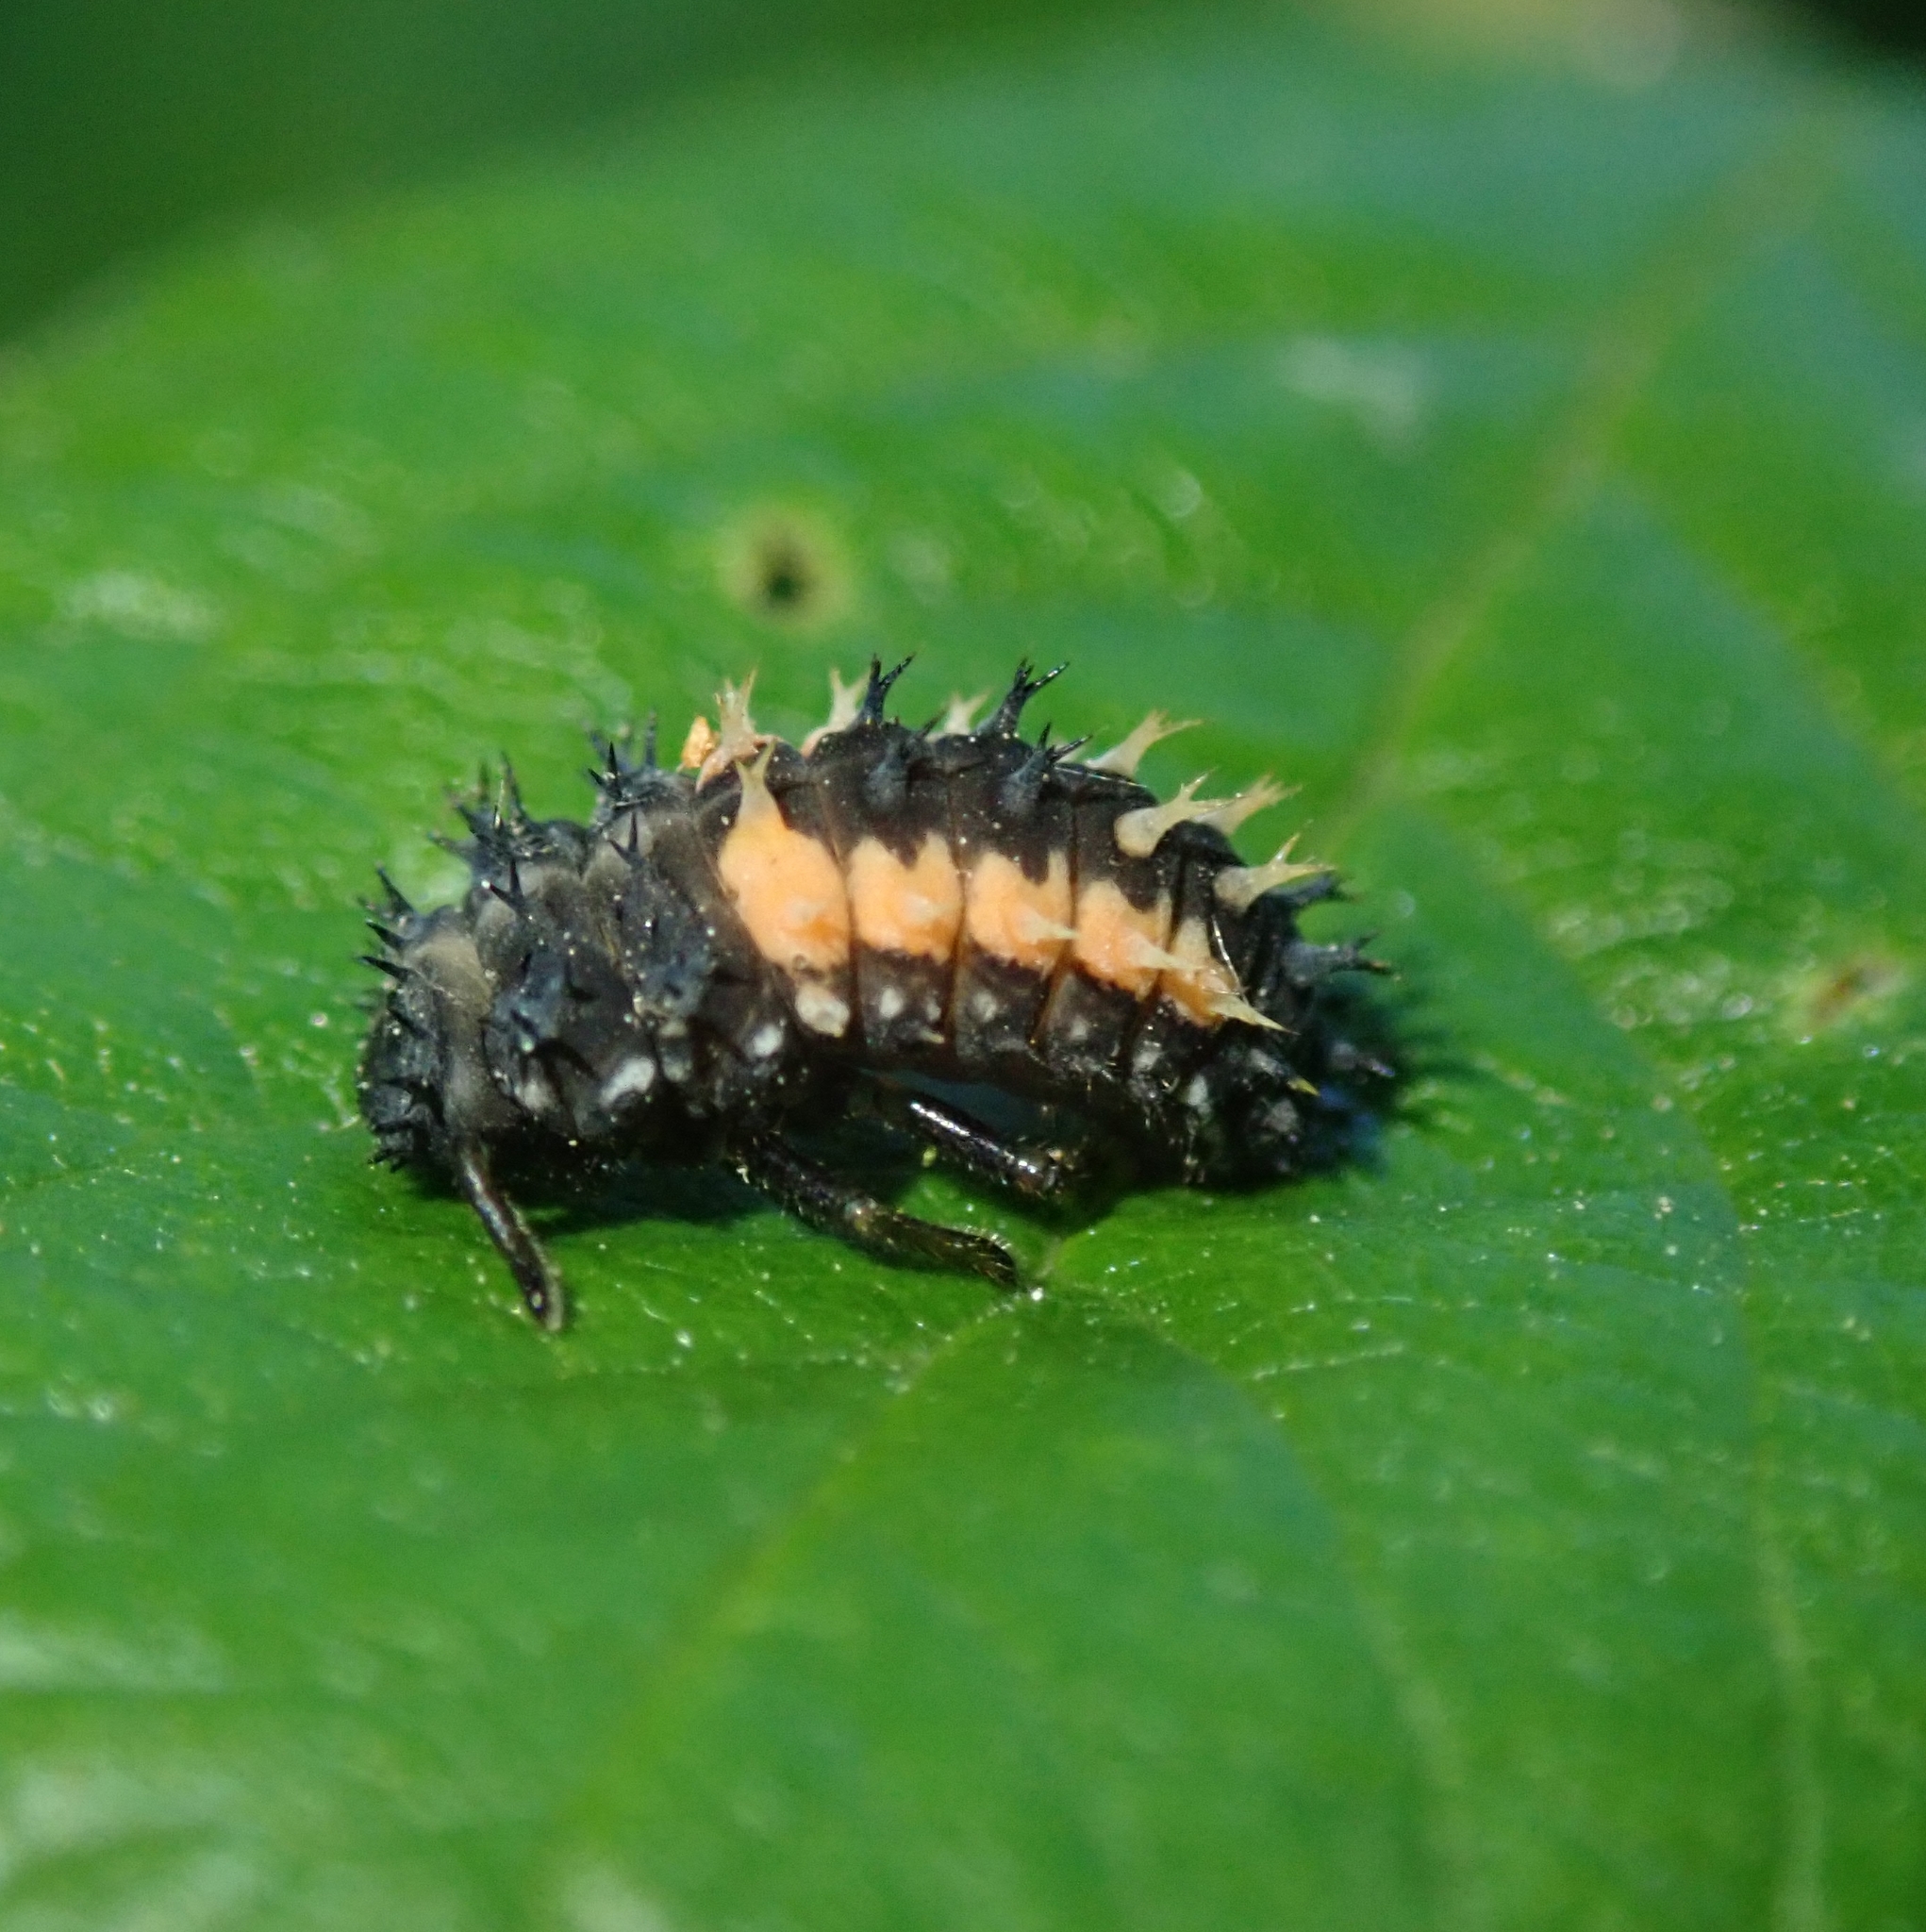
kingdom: Animalia
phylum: Arthropoda
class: Insecta
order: Coleoptera
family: Coccinellidae
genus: Harmonia
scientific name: Harmonia axyridis
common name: Harlequin ladybird
